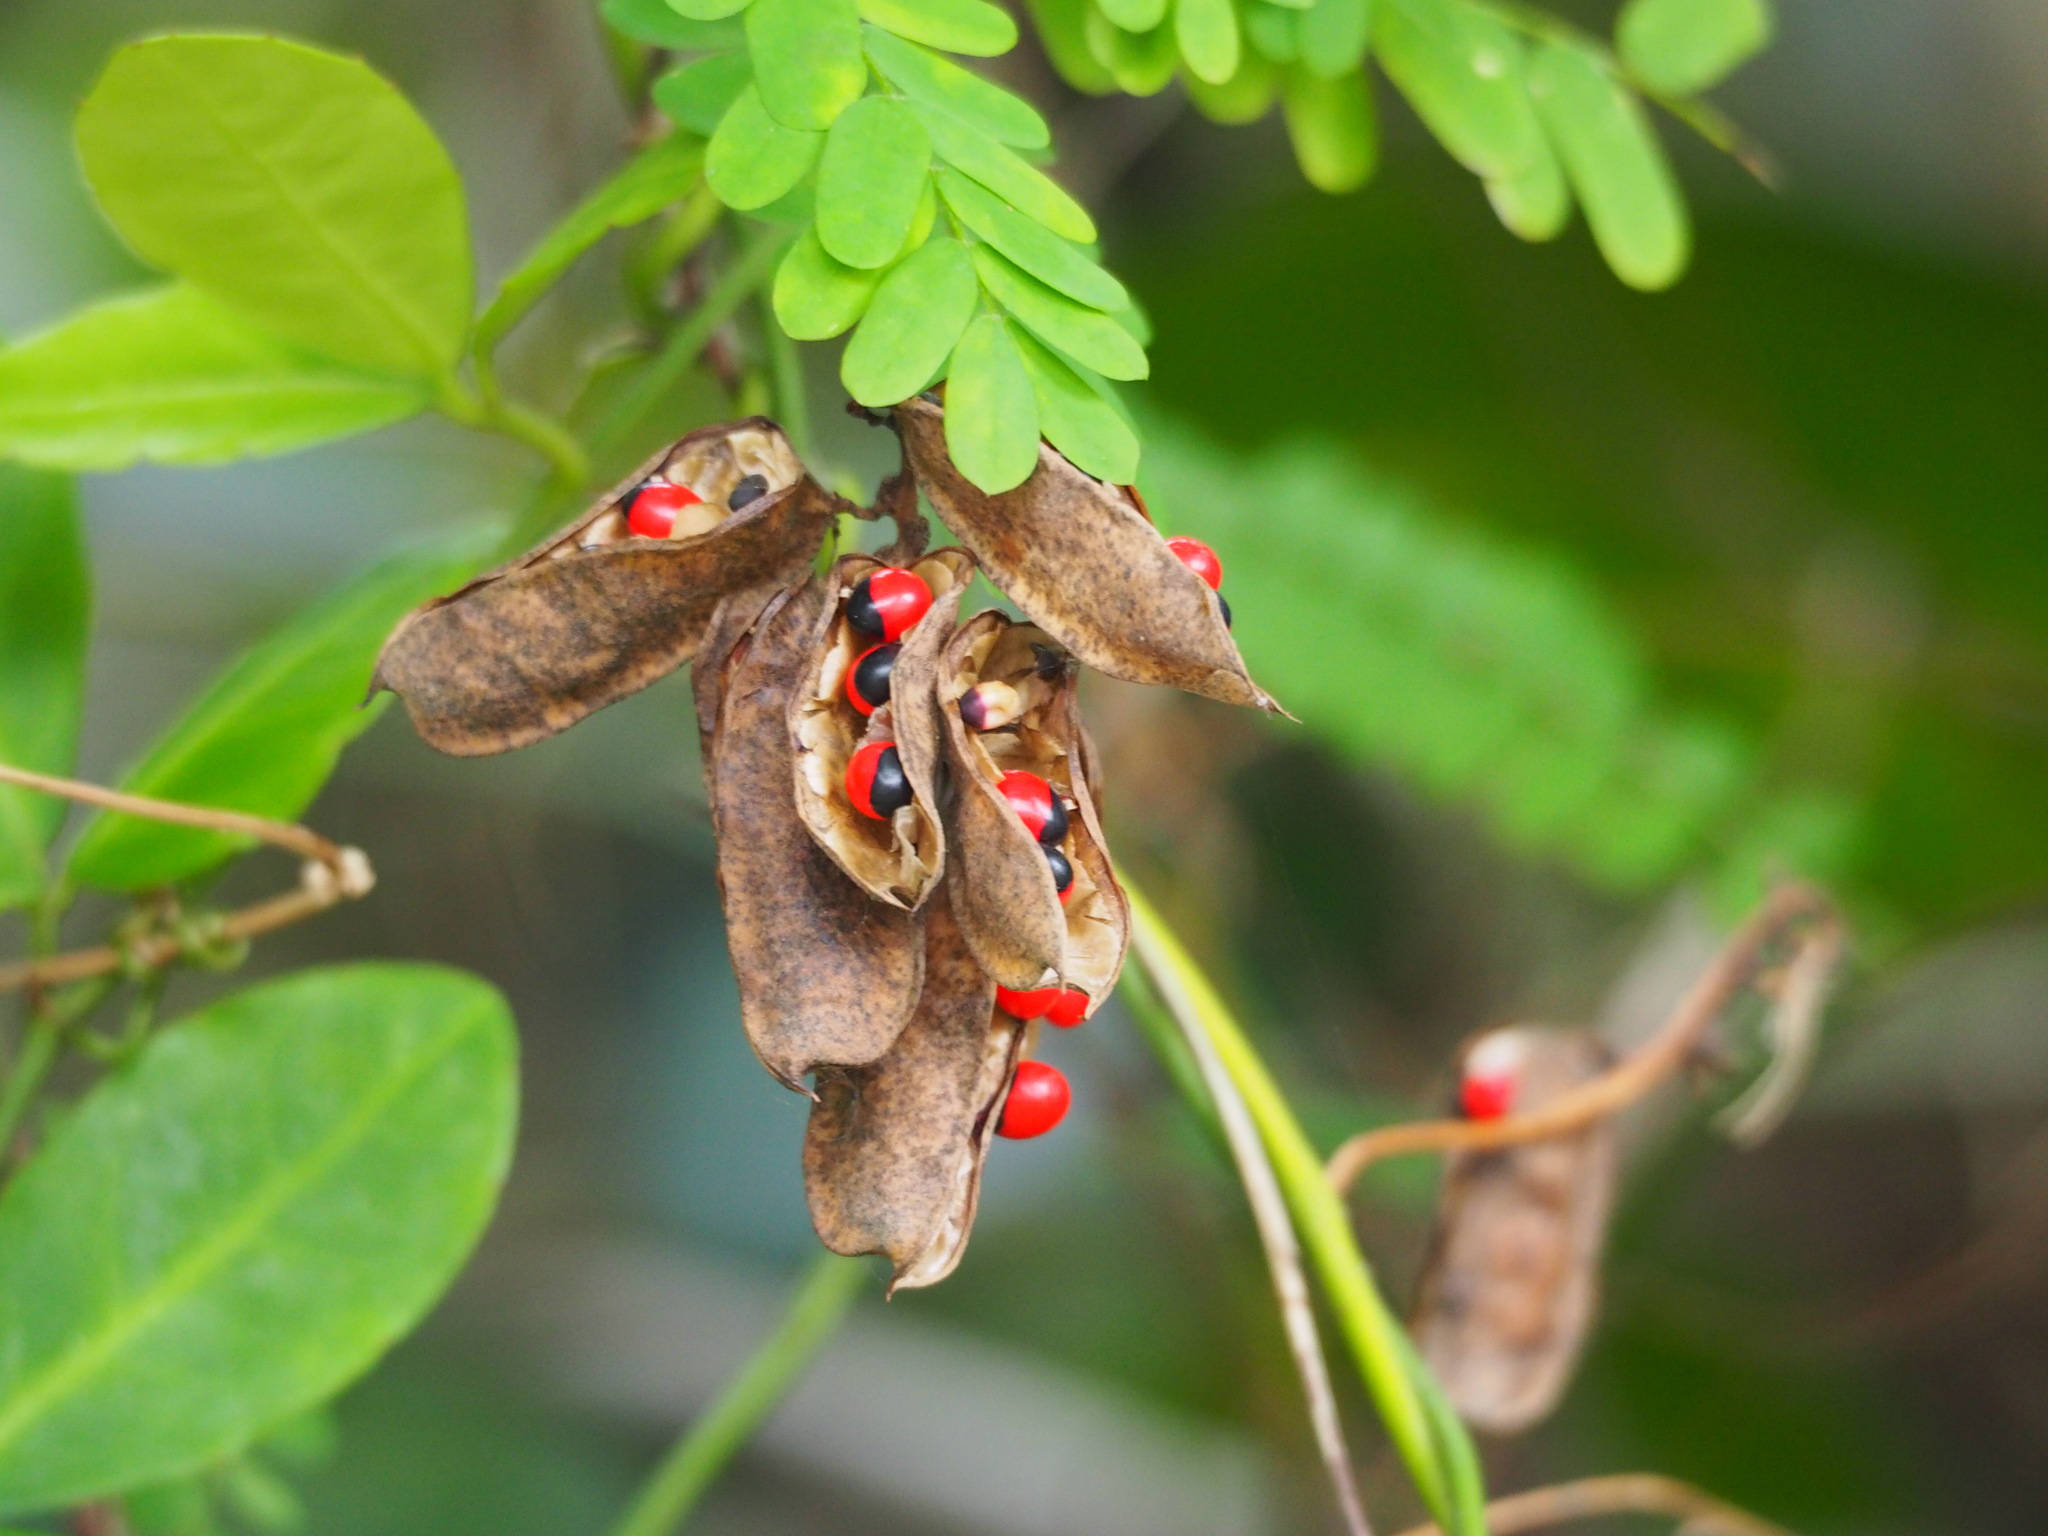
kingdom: Plantae
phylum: Tracheophyta
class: Magnoliopsida
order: Fabales
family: Fabaceae
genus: Abrus
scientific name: Abrus precatorius
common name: Rosarypea
